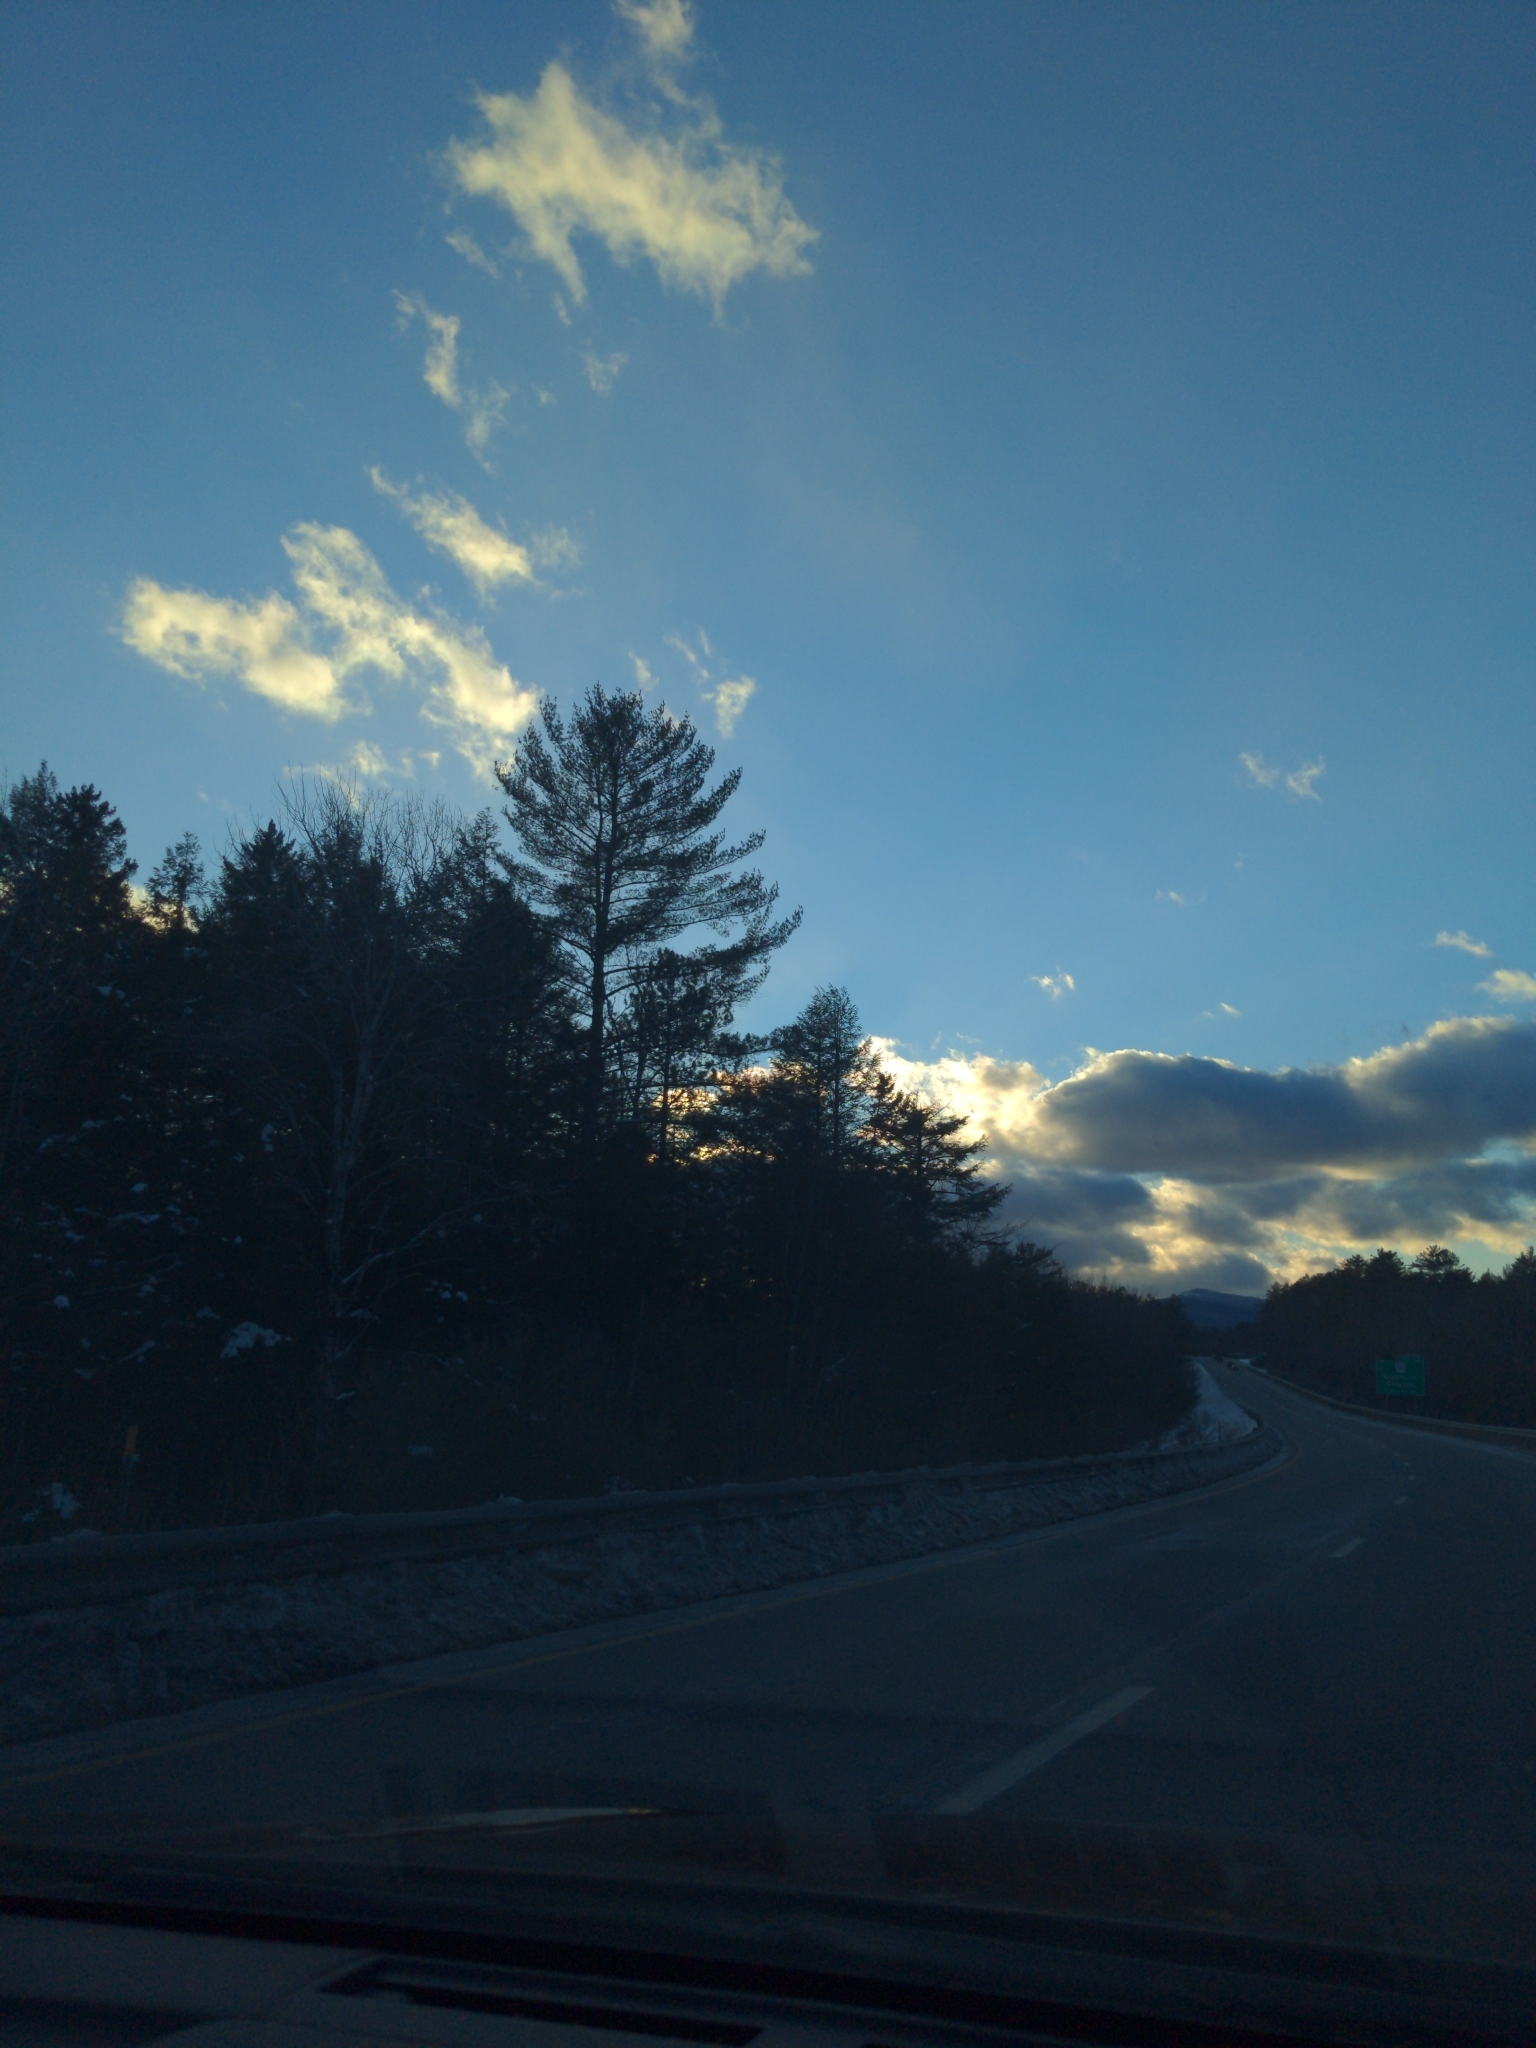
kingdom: Plantae
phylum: Tracheophyta
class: Pinopsida
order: Pinales
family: Pinaceae
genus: Pinus
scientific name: Pinus strobus
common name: Weymouth pine
